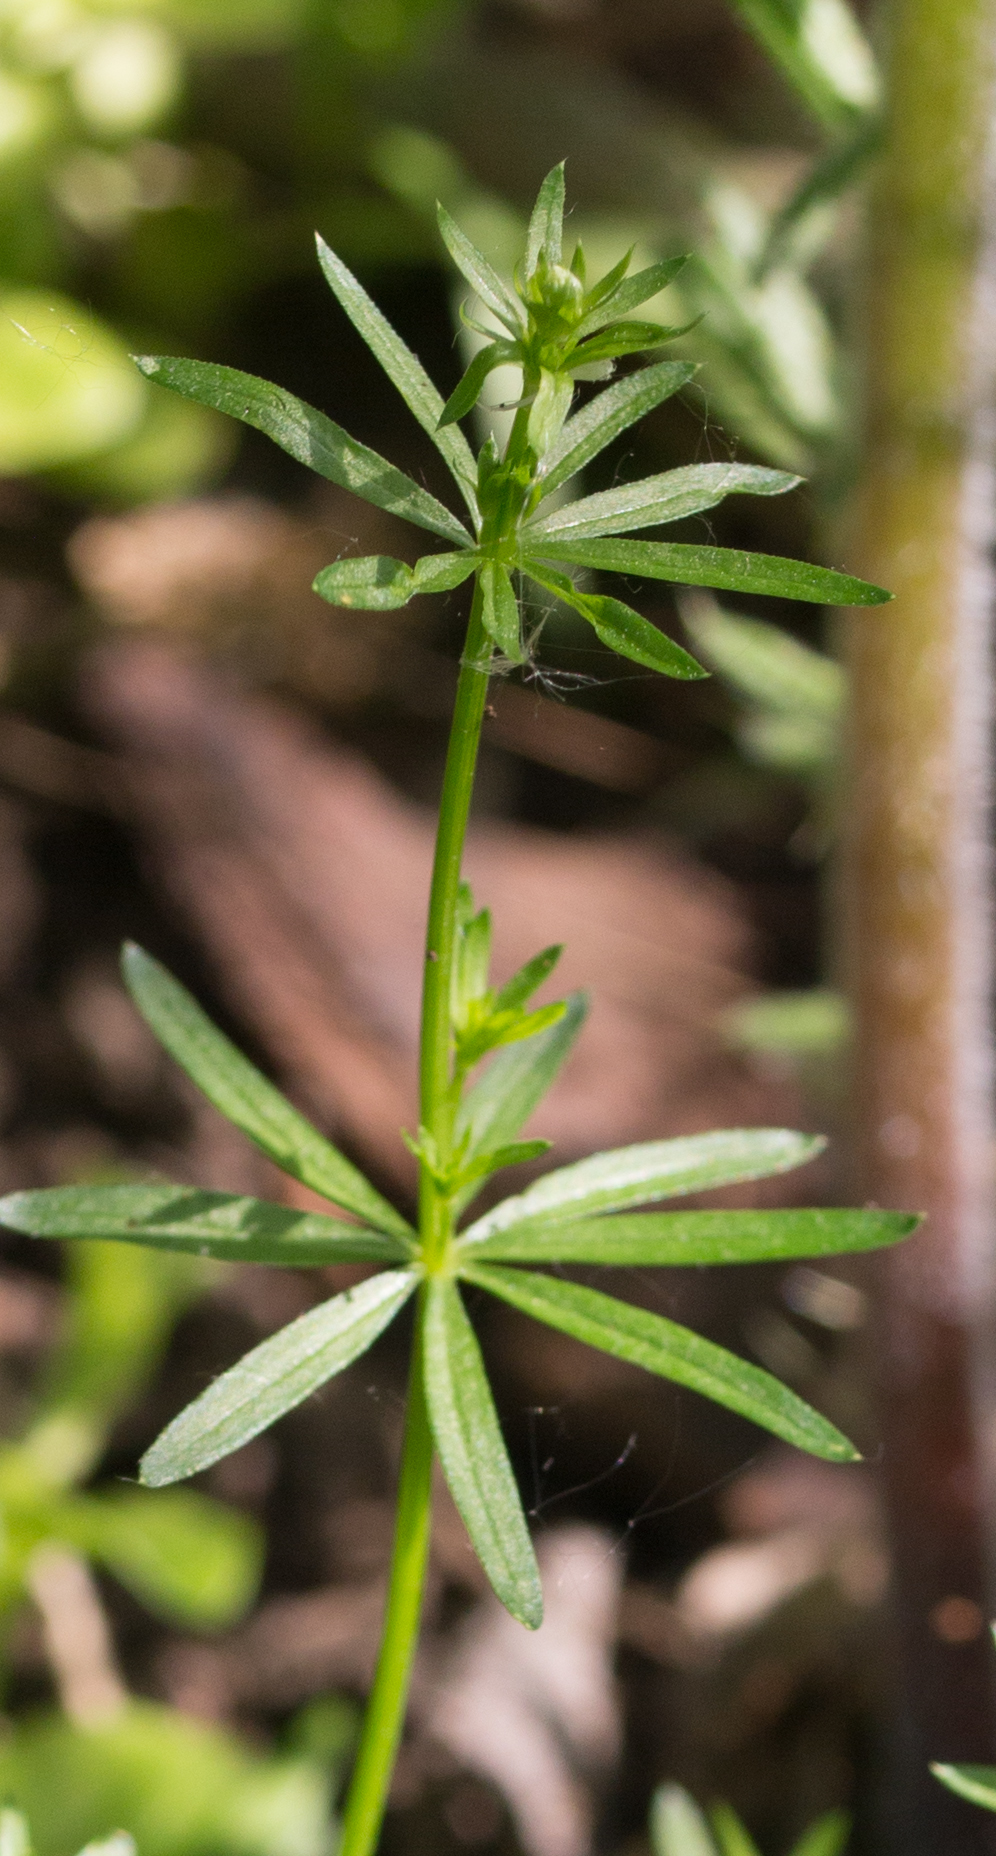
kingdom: Plantae
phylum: Tracheophyta
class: Magnoliopsida
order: Gentianales
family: Rubiaceae
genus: Galium
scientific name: Galium mollugo
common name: Hedge bedstraw
